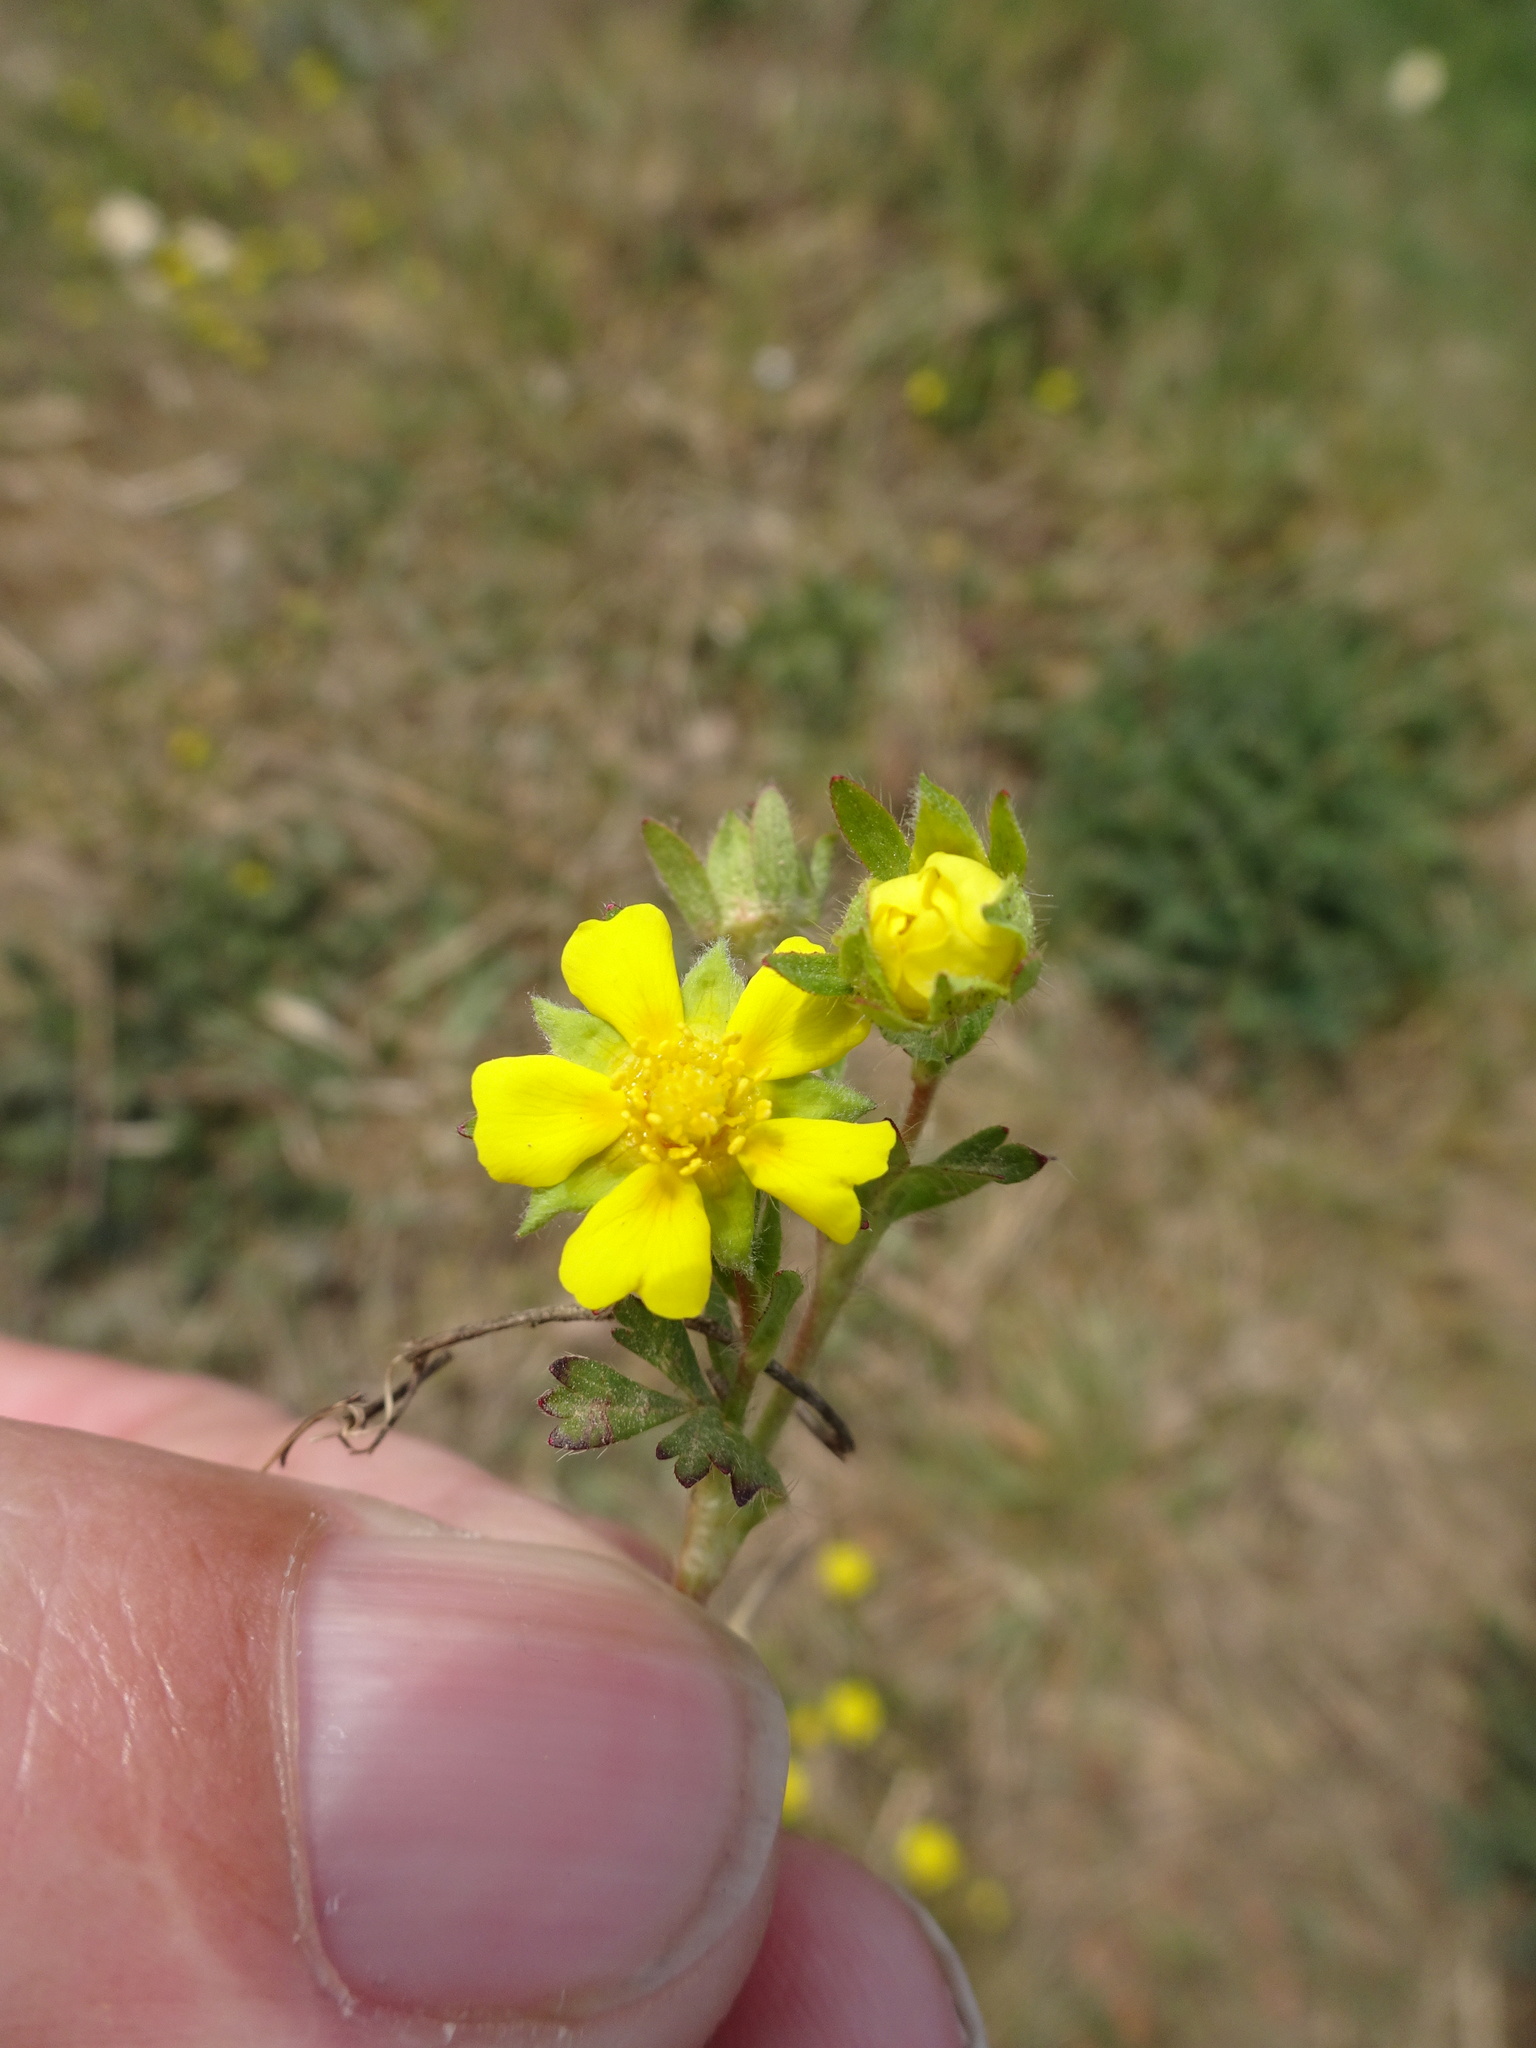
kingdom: Plantae
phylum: Tracheophyta
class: Magnoliopsida
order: Rosales
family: Rosaceae
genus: Potentilla
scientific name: Potentilla verna
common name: Spring cinquefoil
